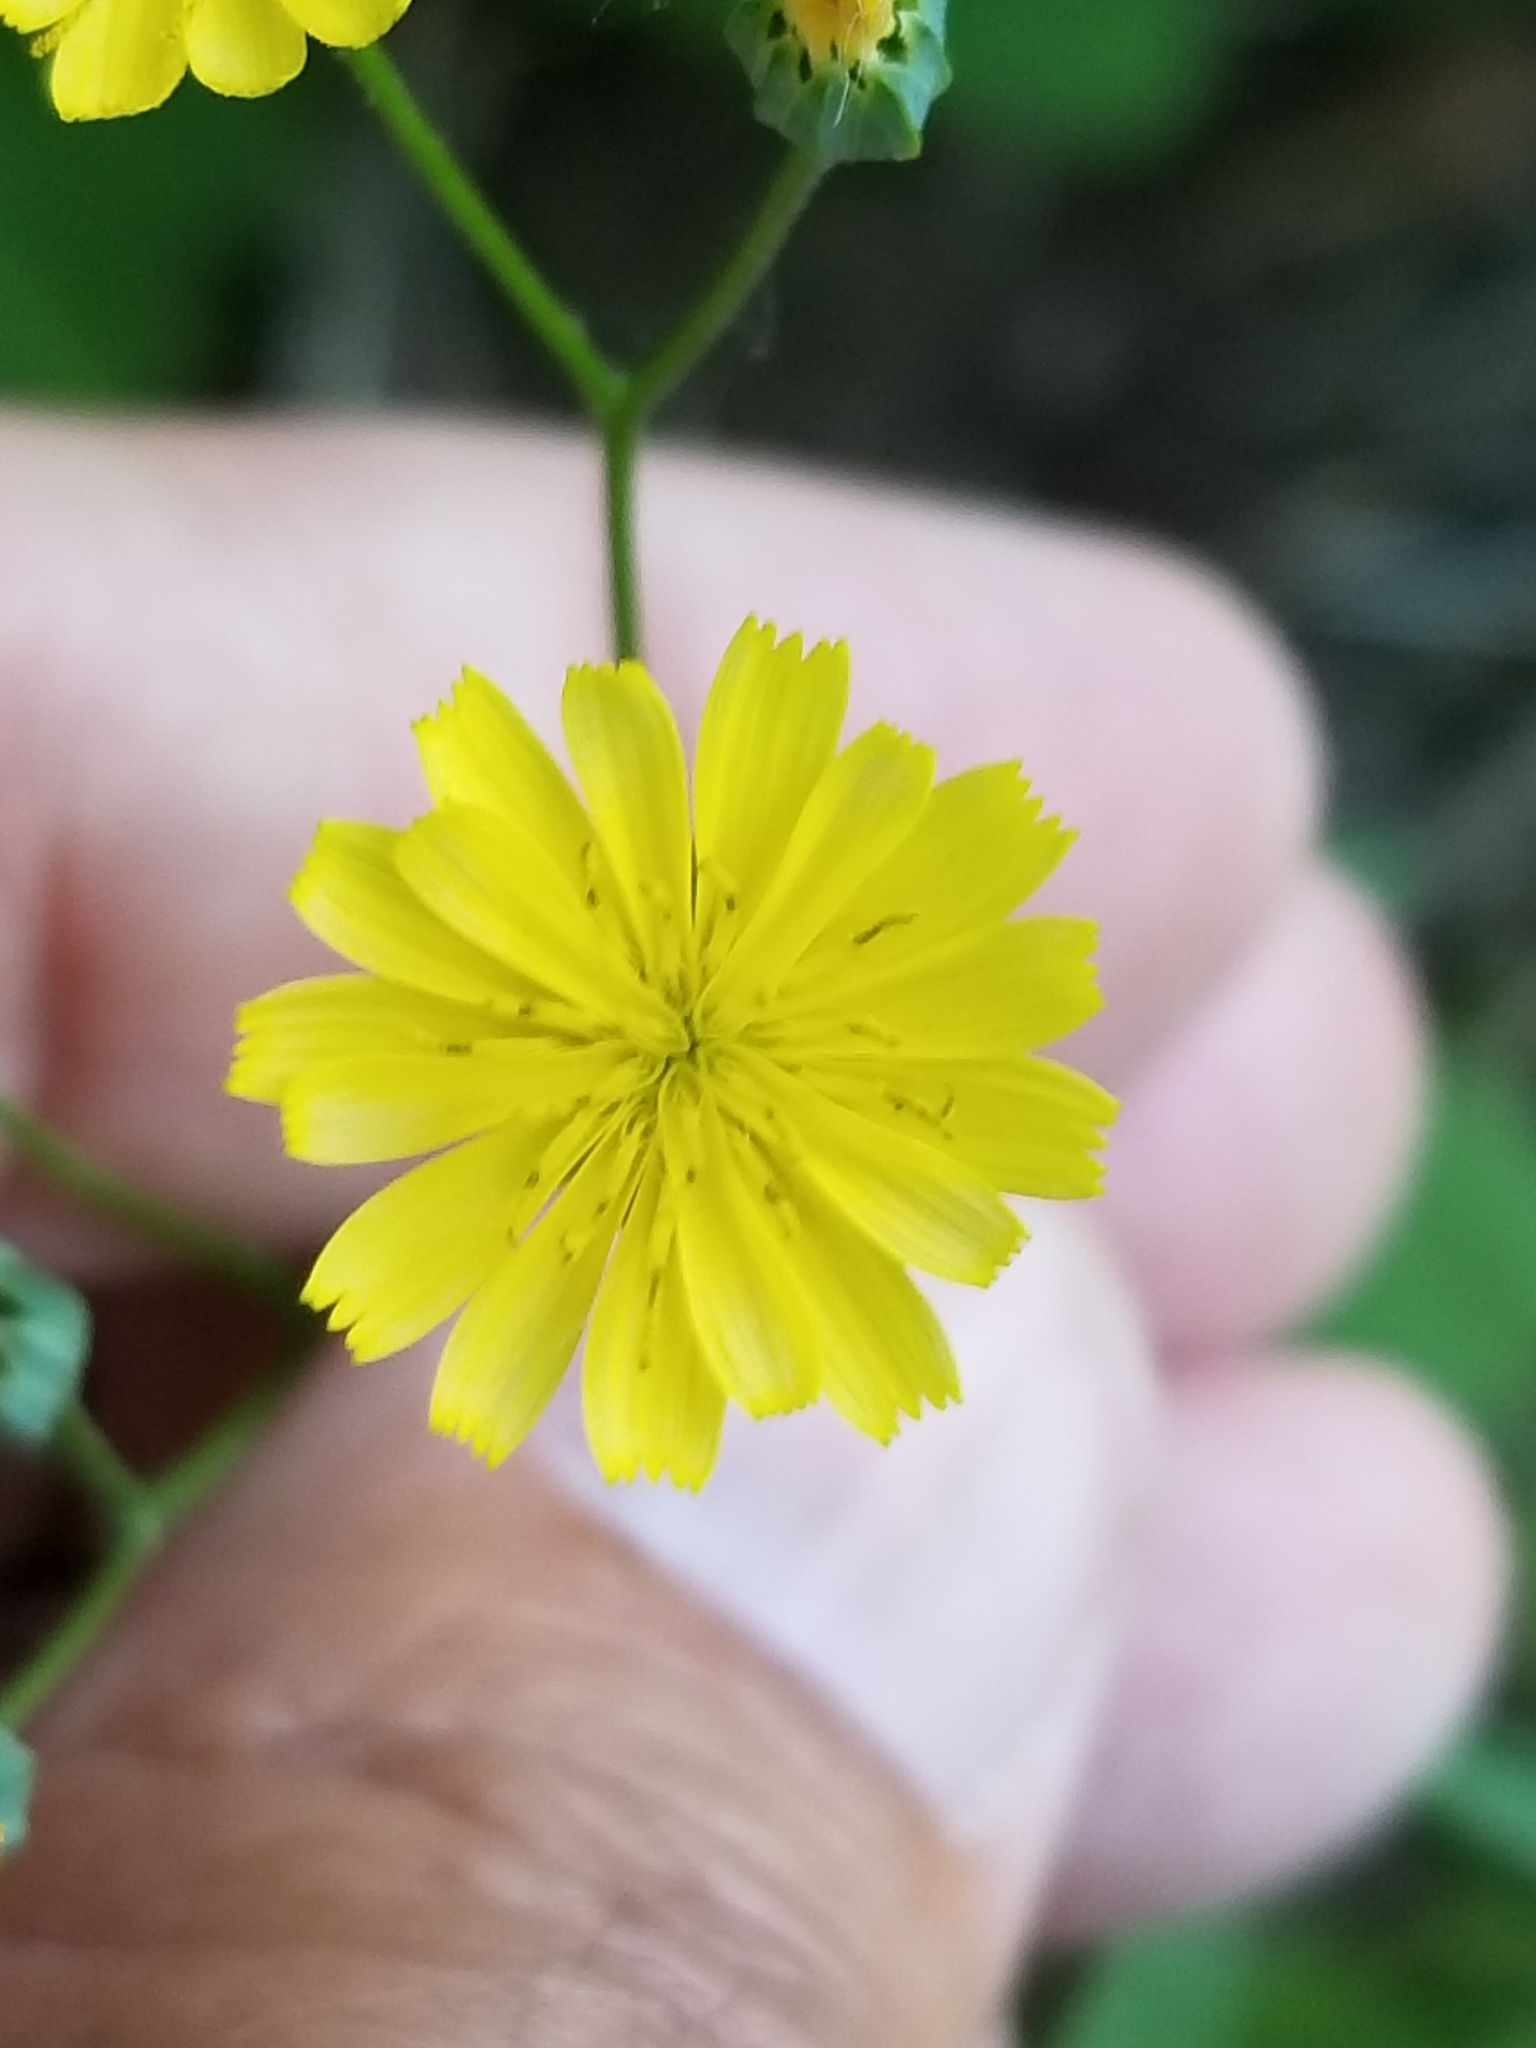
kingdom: Plantae
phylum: Tracheophyta
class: Magnoliopsida
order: Asterales
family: Asteraceae
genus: Lapsana
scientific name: Lapsana communis
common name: Nipplewort
